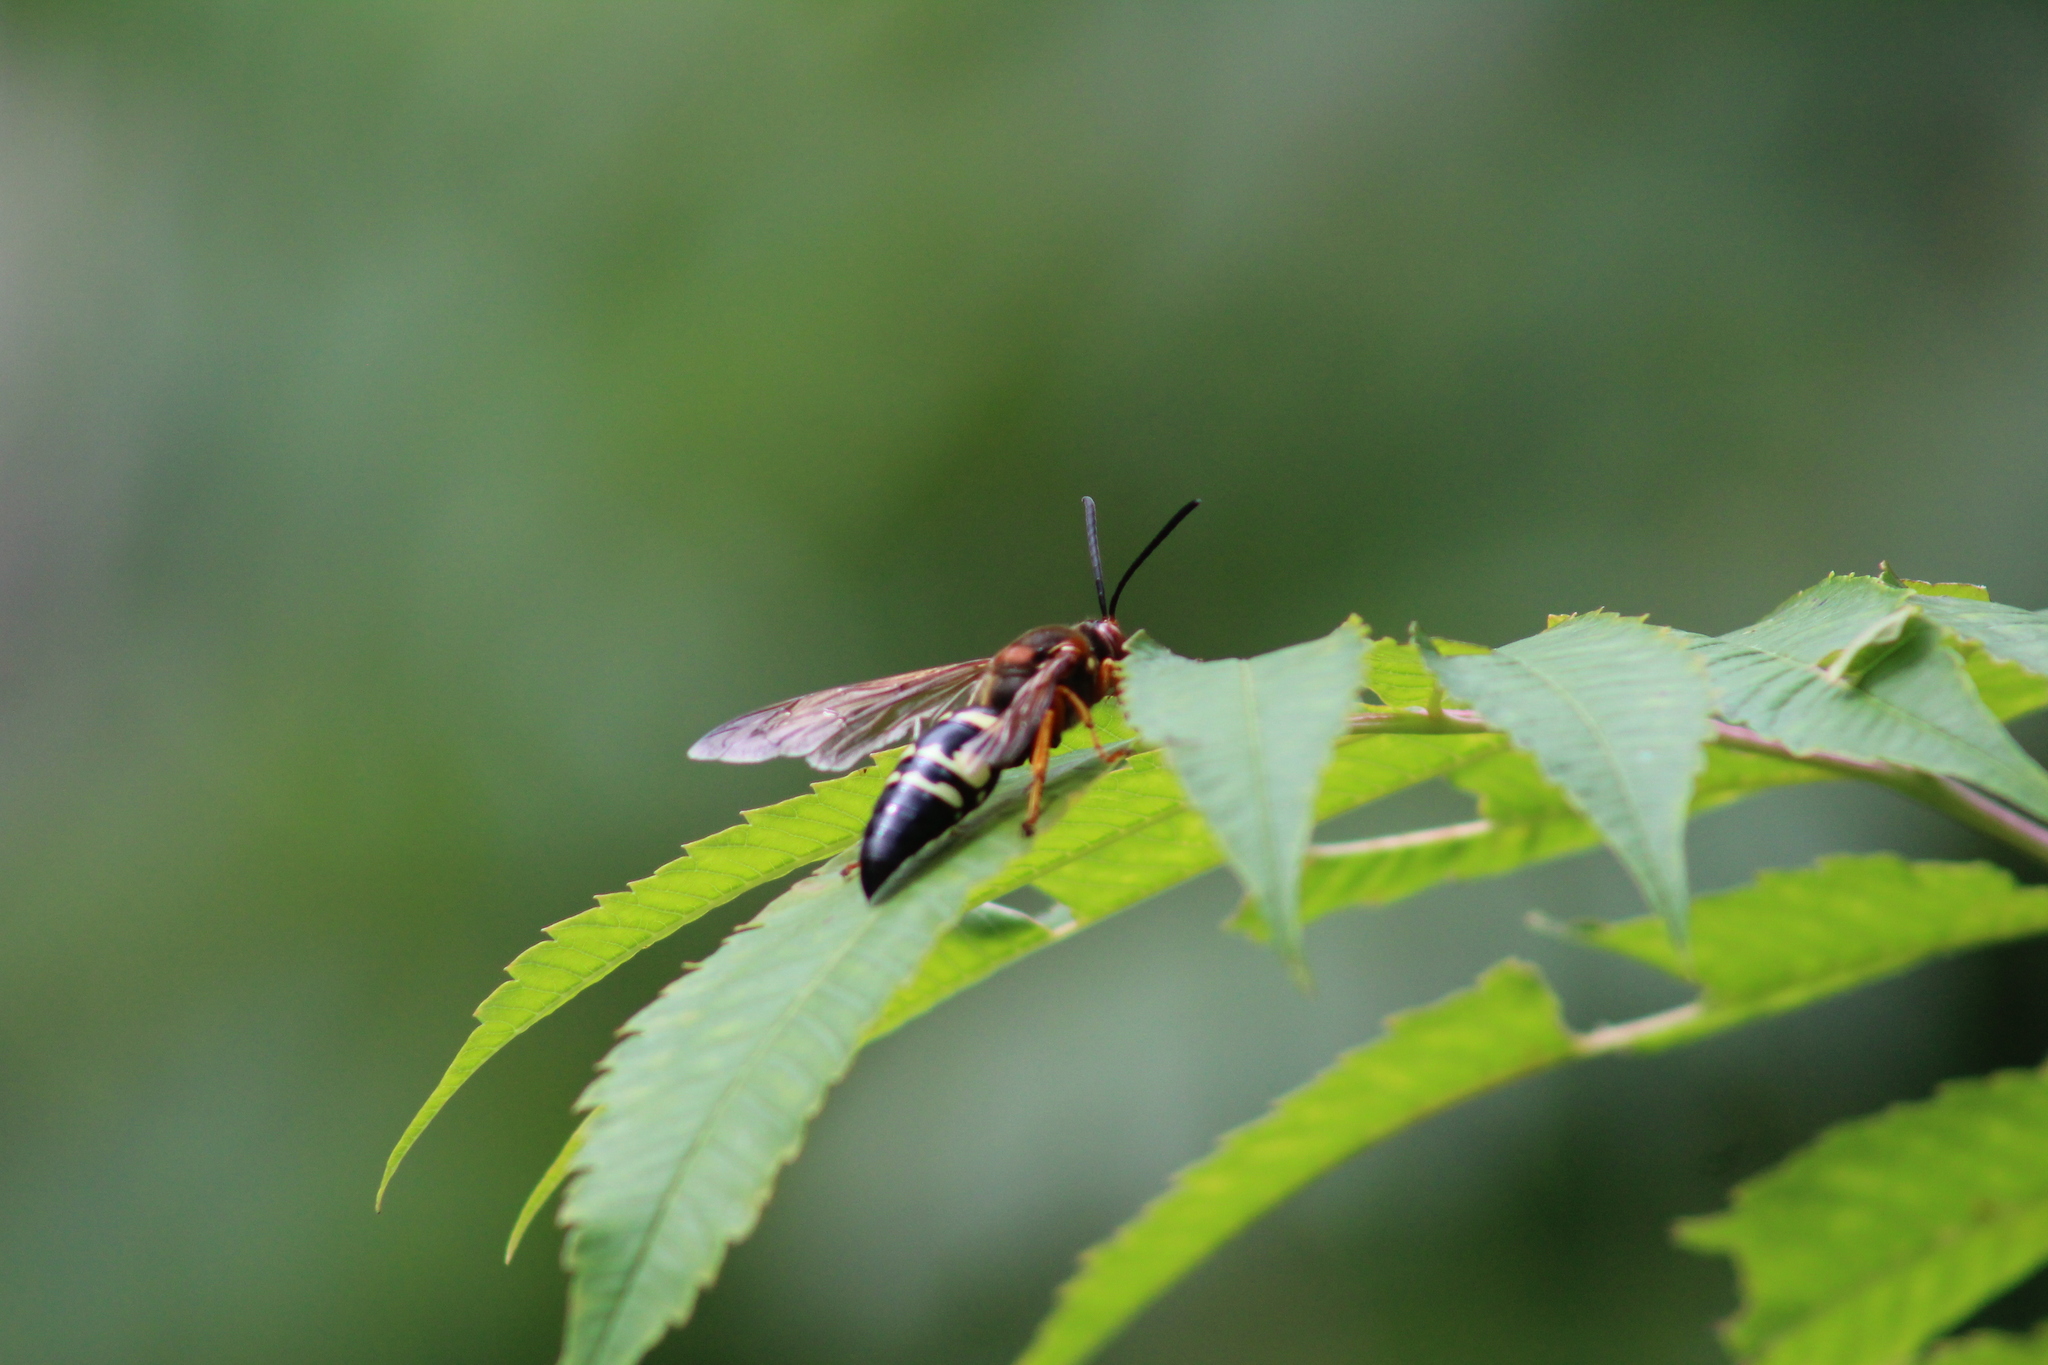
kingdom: Animalia
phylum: Arthropoda
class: Insecta
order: Hymenoptera
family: Crabronidae
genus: Sphecius
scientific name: Sphecius speciosus
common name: Cicada killer
